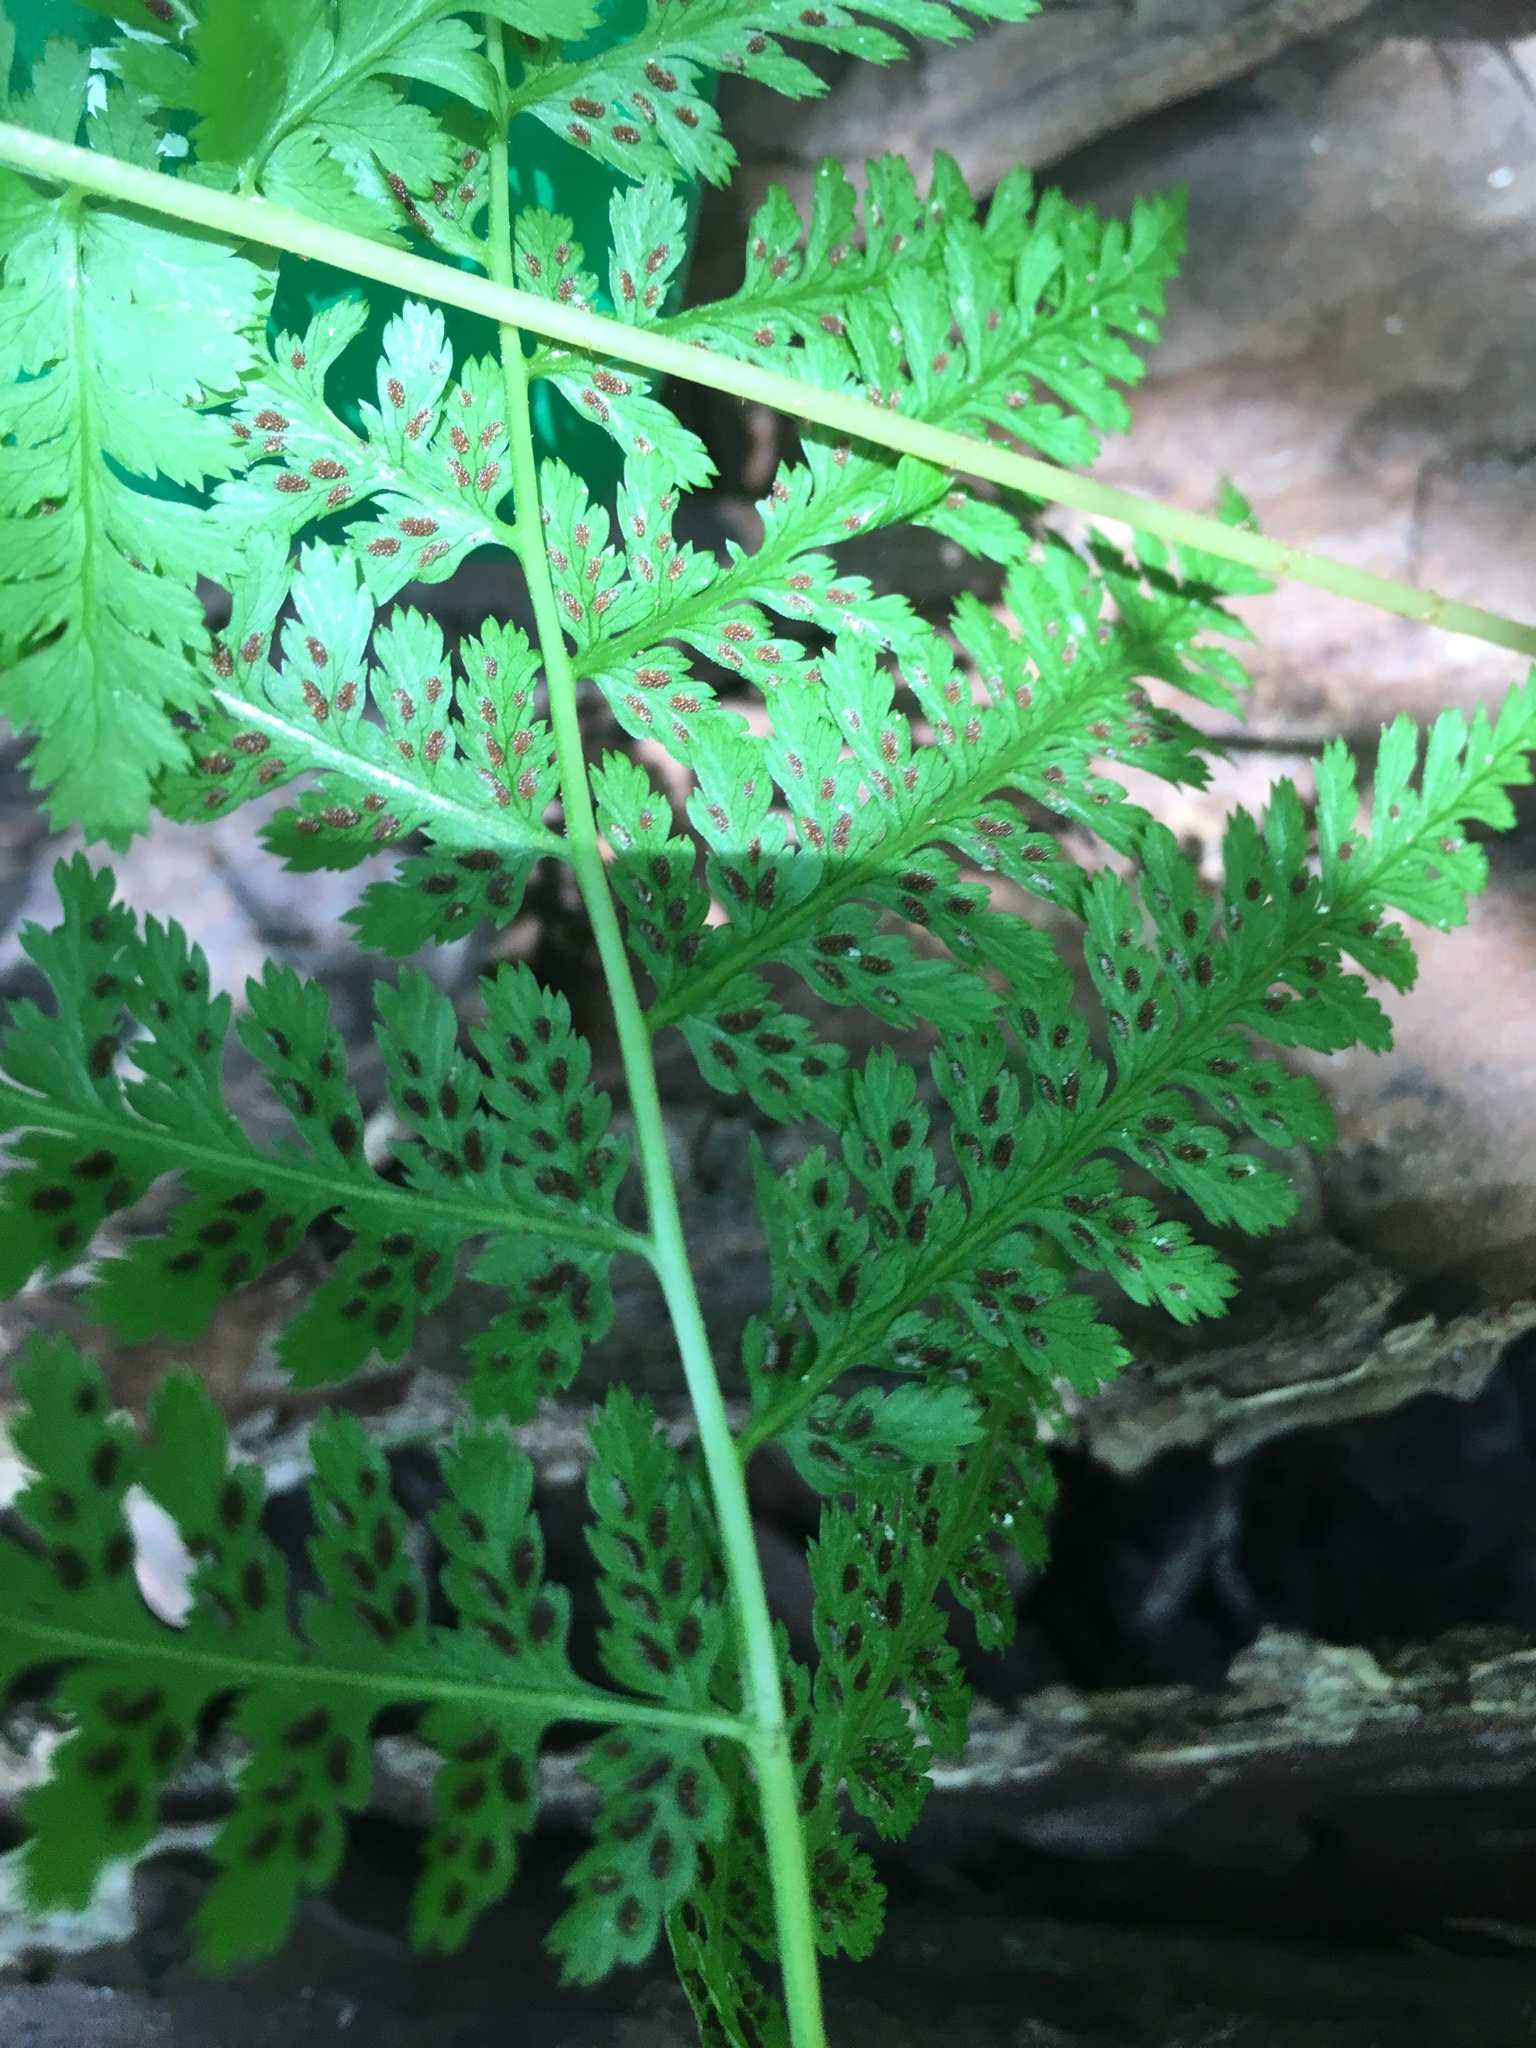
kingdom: Plantae
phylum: Tracheophyta
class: Polypodiopsida
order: Polypodiales
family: Athyriaceae
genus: Athyrium
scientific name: Athyrium angustum
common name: Northern lady fern
